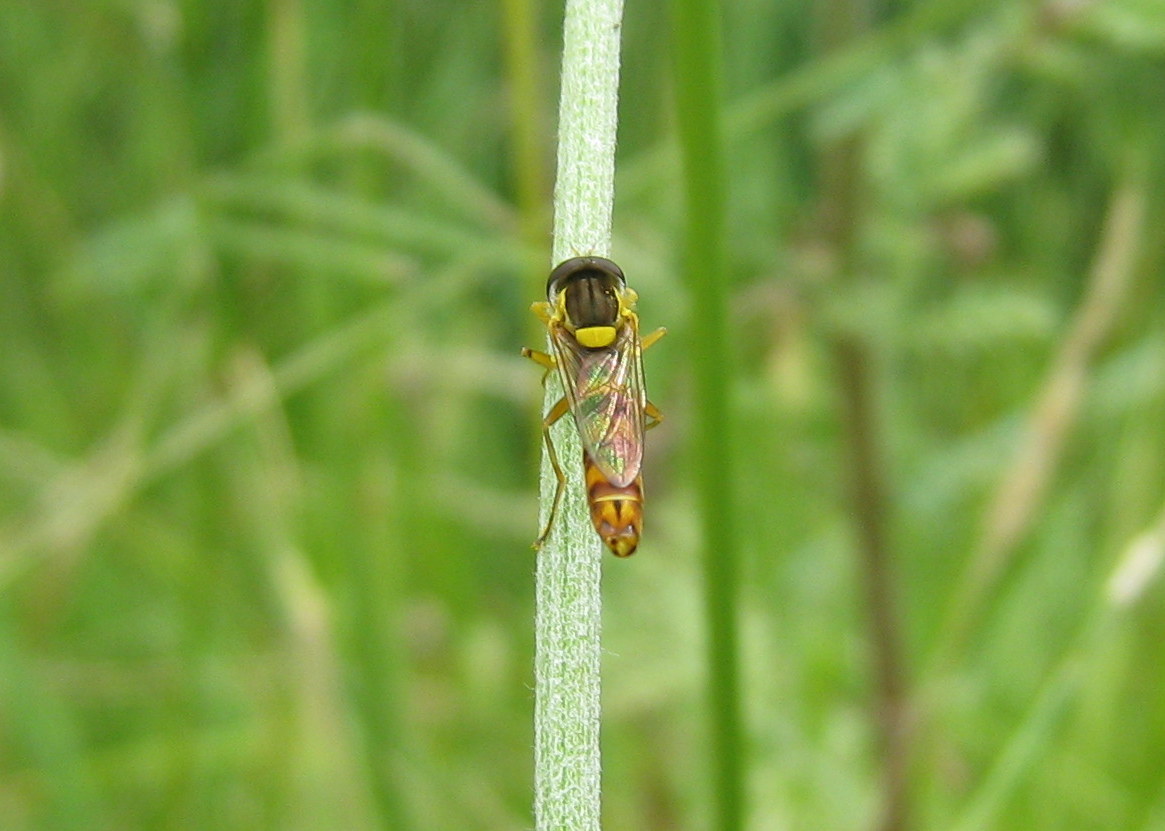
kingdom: Animalia
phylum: Arthropoda
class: Insecta
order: Diptera
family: Syrphidae
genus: Sphaerophoria
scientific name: Sphaerophoria
